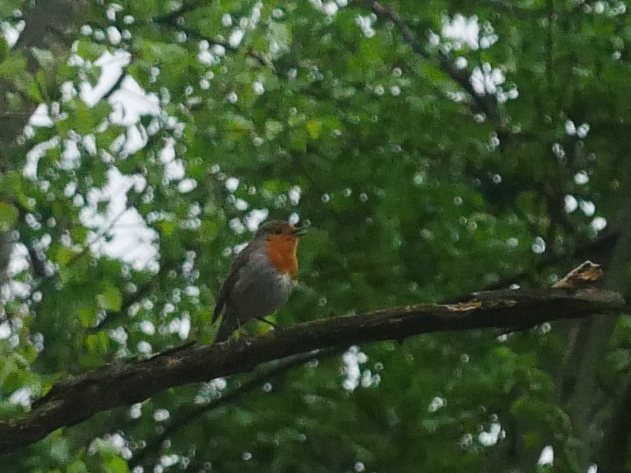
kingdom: Animalia
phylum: Chordata
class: Aves
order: Passeriformes
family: Muscicapidae
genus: Erithacus
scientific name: Erithacus rubecula
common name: European robin
